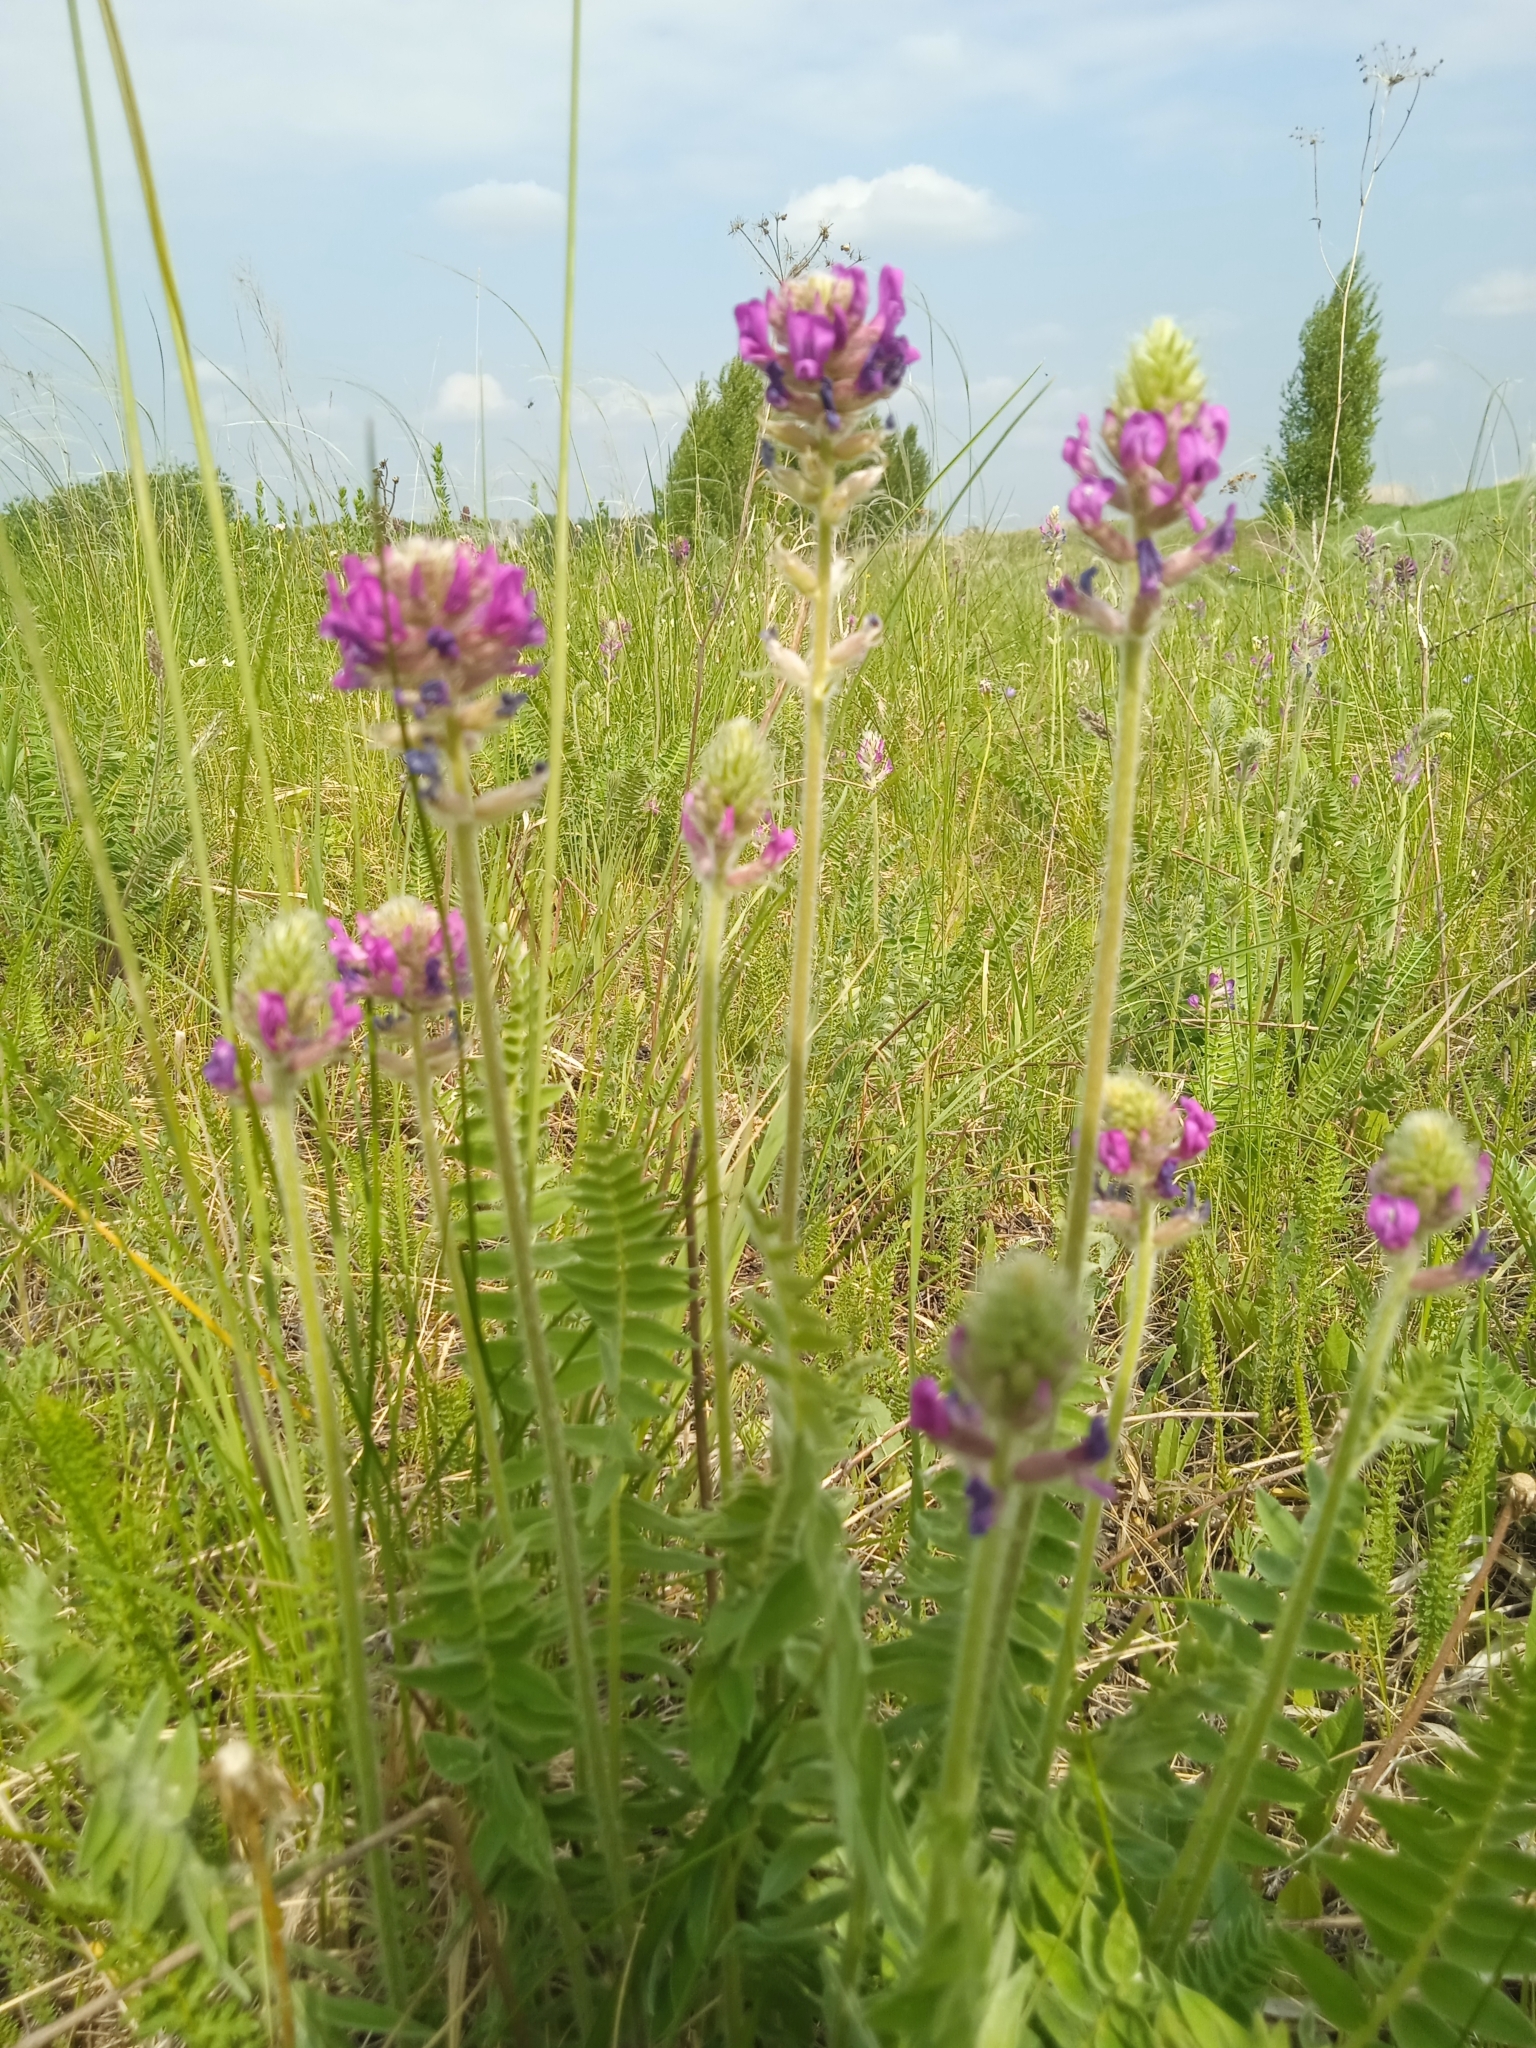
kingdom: Plantae
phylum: Tracheophyta
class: Magnoliopsida
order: Fabales
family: Fabaceae
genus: Oxytropis
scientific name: Oxytropis campanulata
